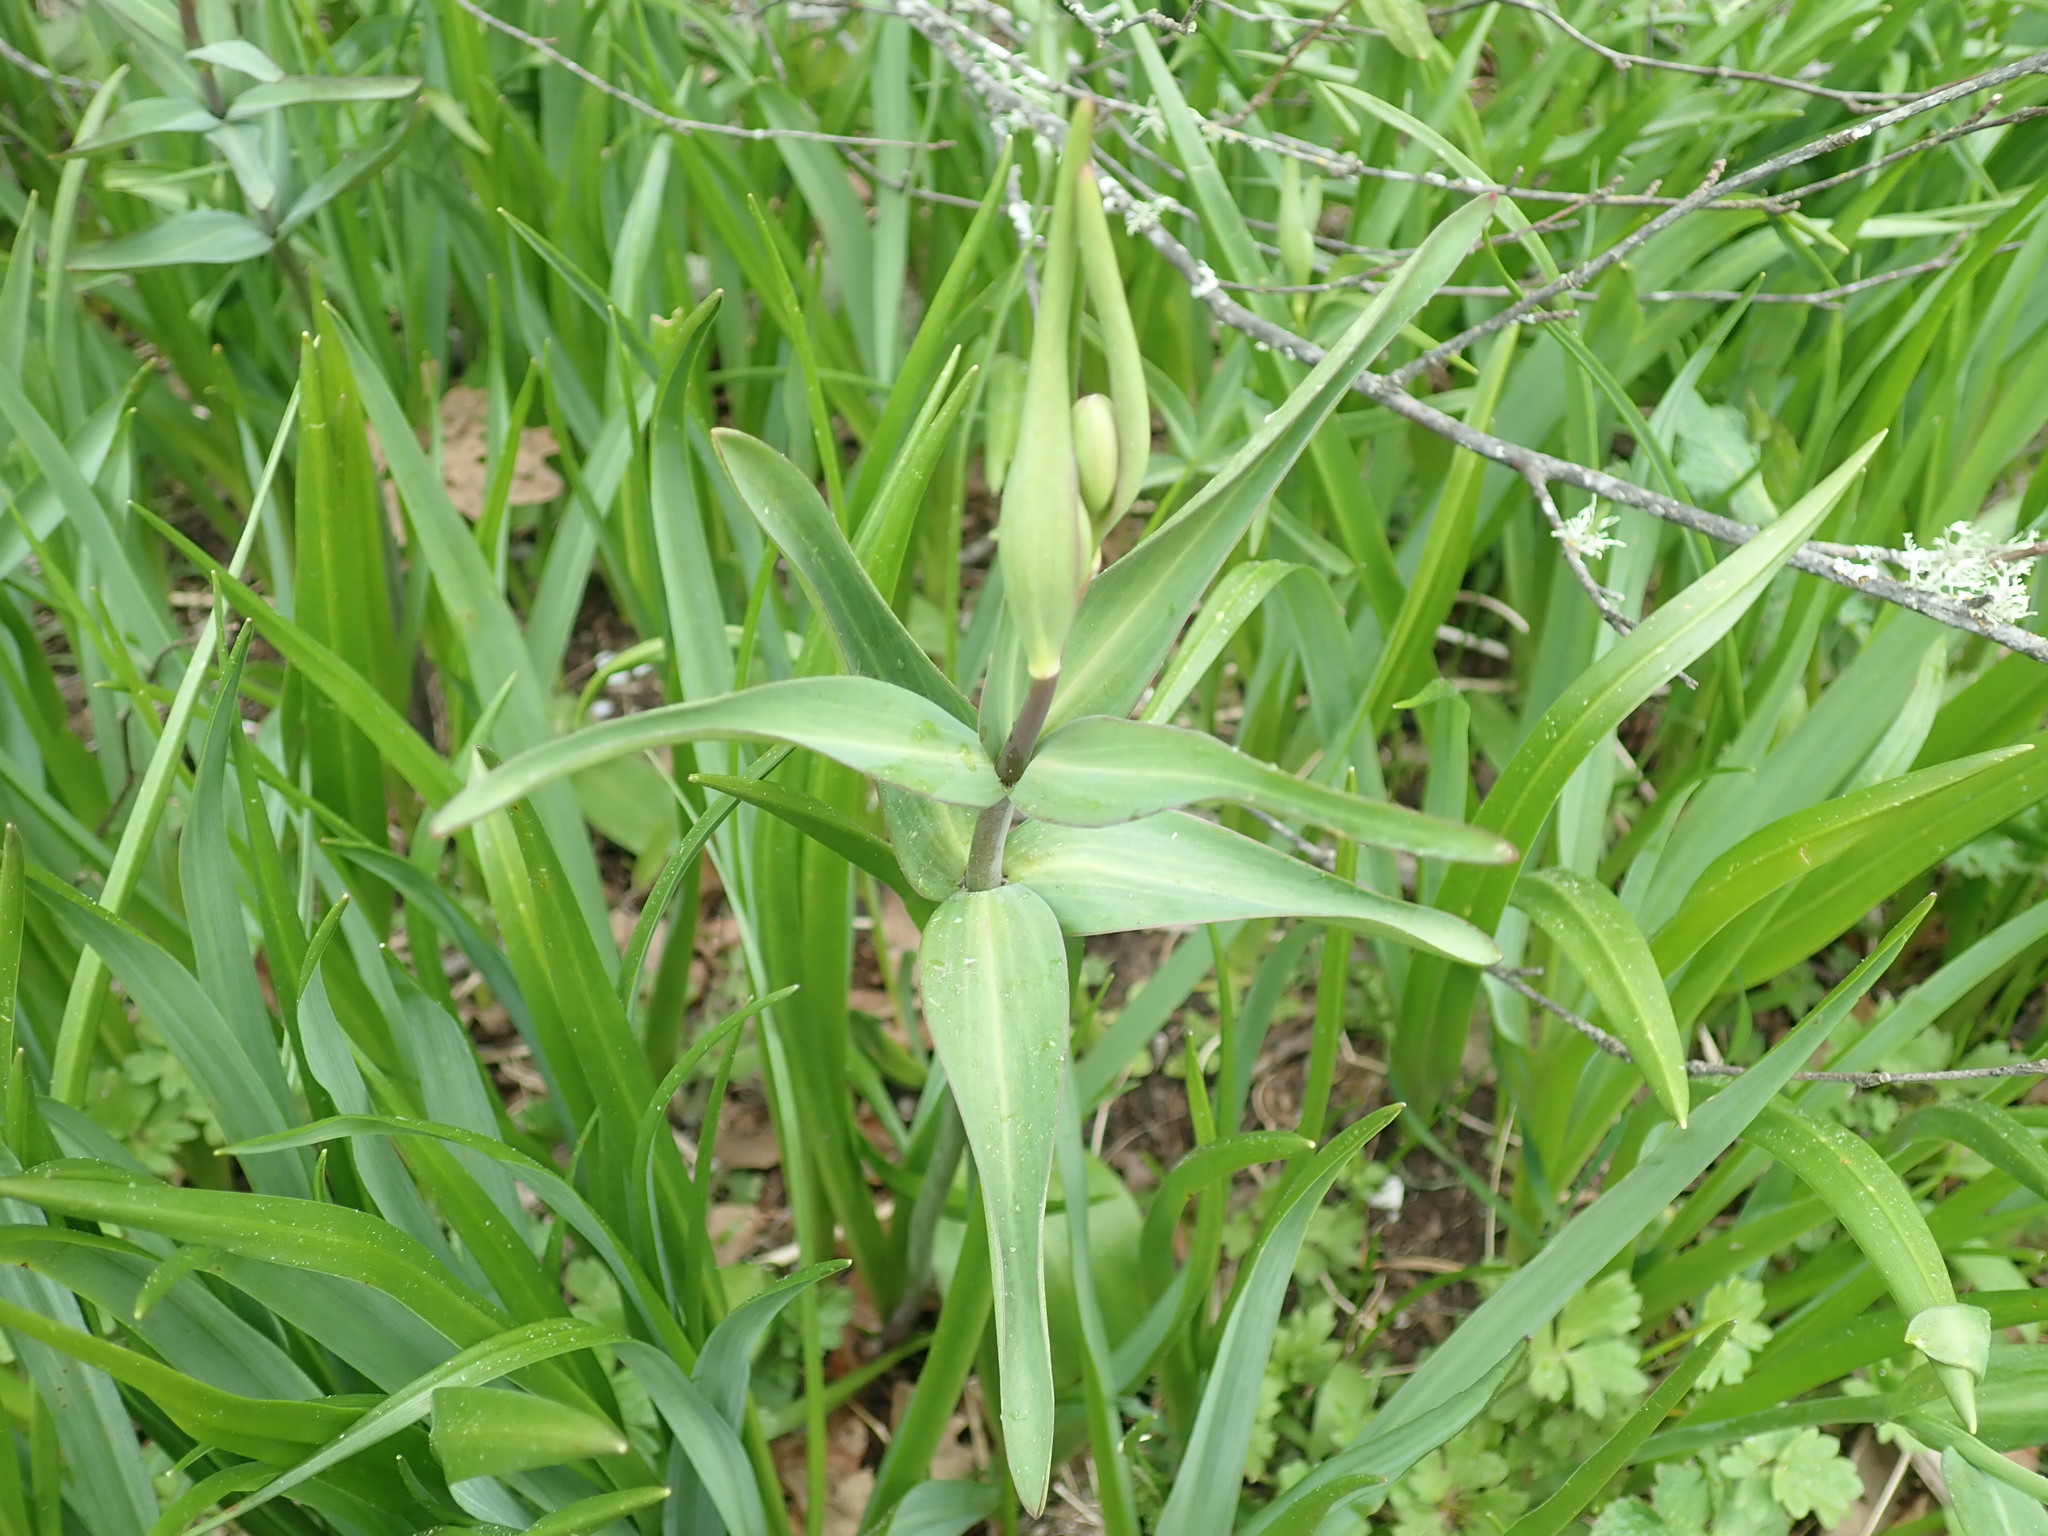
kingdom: Plantae
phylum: Tracheophyta
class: Liliopsida
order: Liliales
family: Liliaceae
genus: Fritillaria
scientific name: Fritillaria affinis
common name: Ojai fritillary
